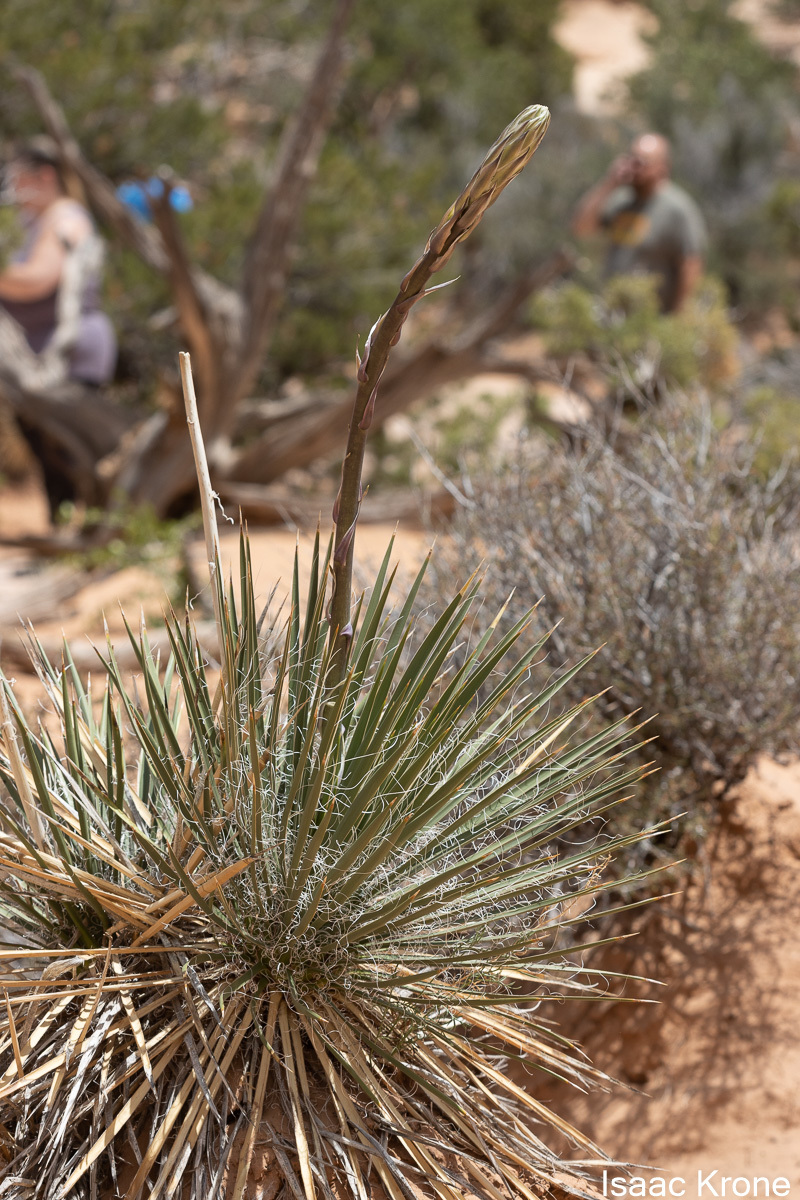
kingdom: Plantae
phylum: Tracheophyta
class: Liliopsida
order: Asparagales
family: Asparagaceae
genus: Yucca
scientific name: Yucca angustissima
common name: Narrowleaf yucca
